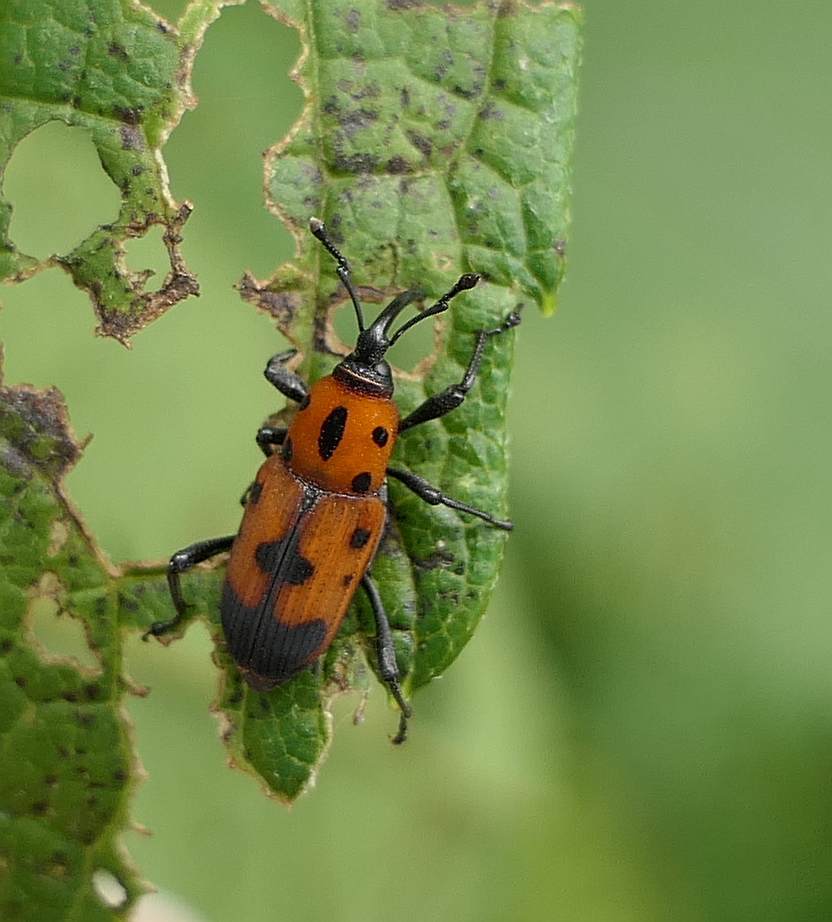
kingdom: Animalia
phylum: Arthropoda
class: Insecta
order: Coleoptera
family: Dryophthoridae
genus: Rhodobaenus
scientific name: Rhodobaenus quinquepunctatus
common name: Cocklebur weevil
